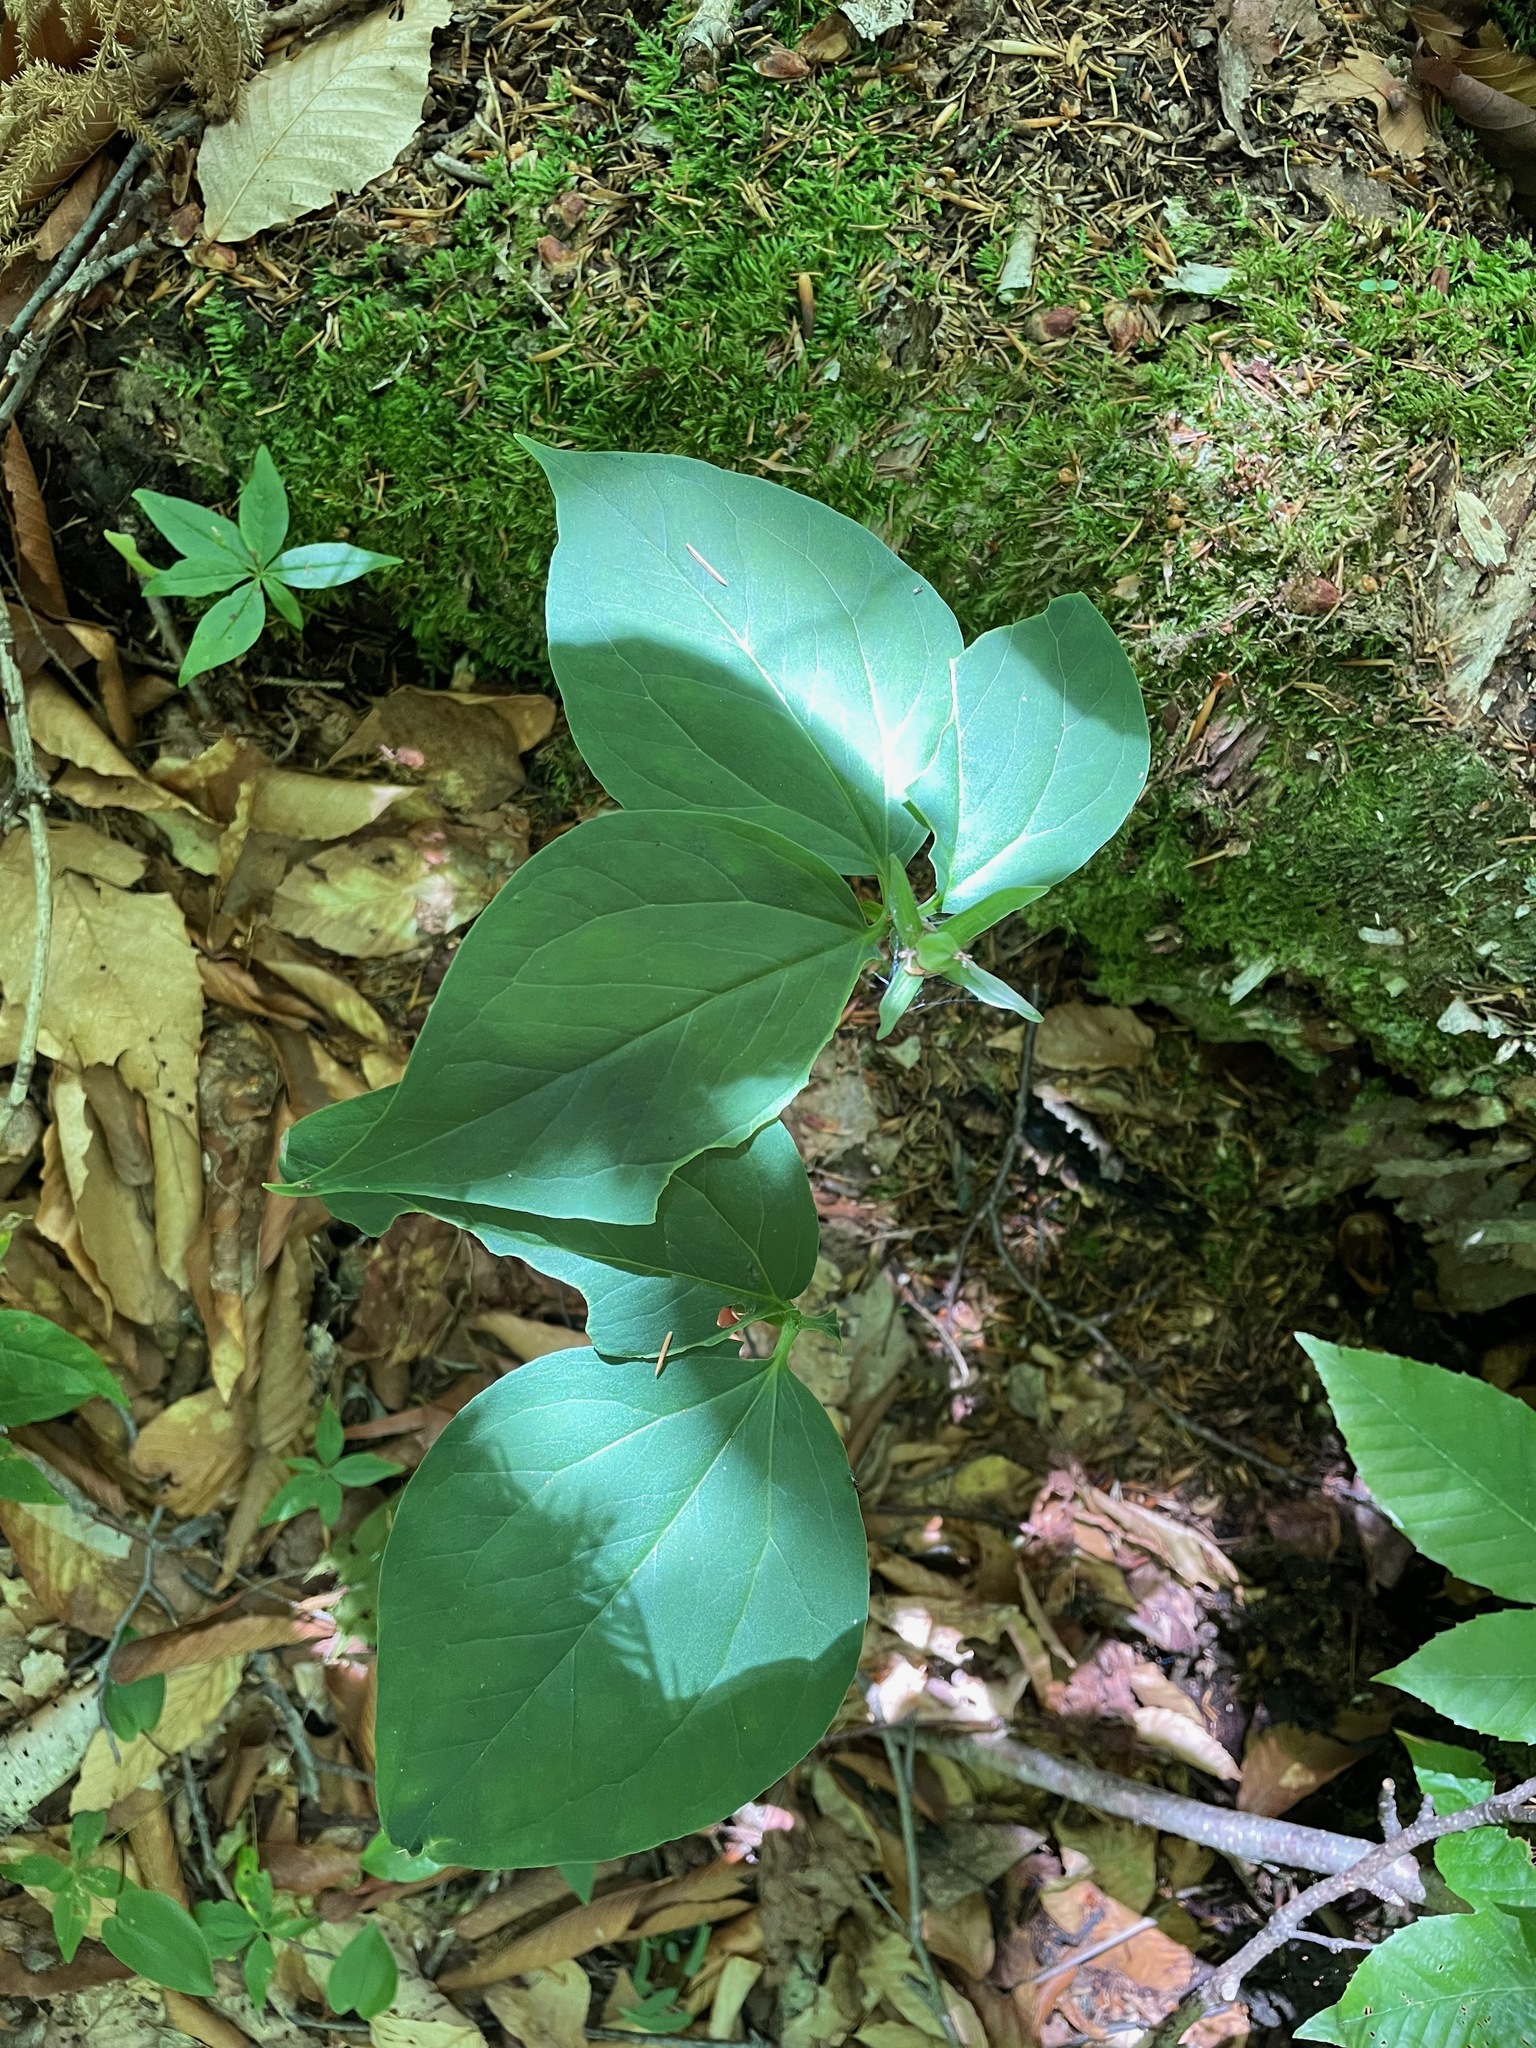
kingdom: Plantae
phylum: Tracheophyta
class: Liliopsida
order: Liliales
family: Melanthiaceae
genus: Trillium
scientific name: Trillium undulatum
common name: Paint trillium
